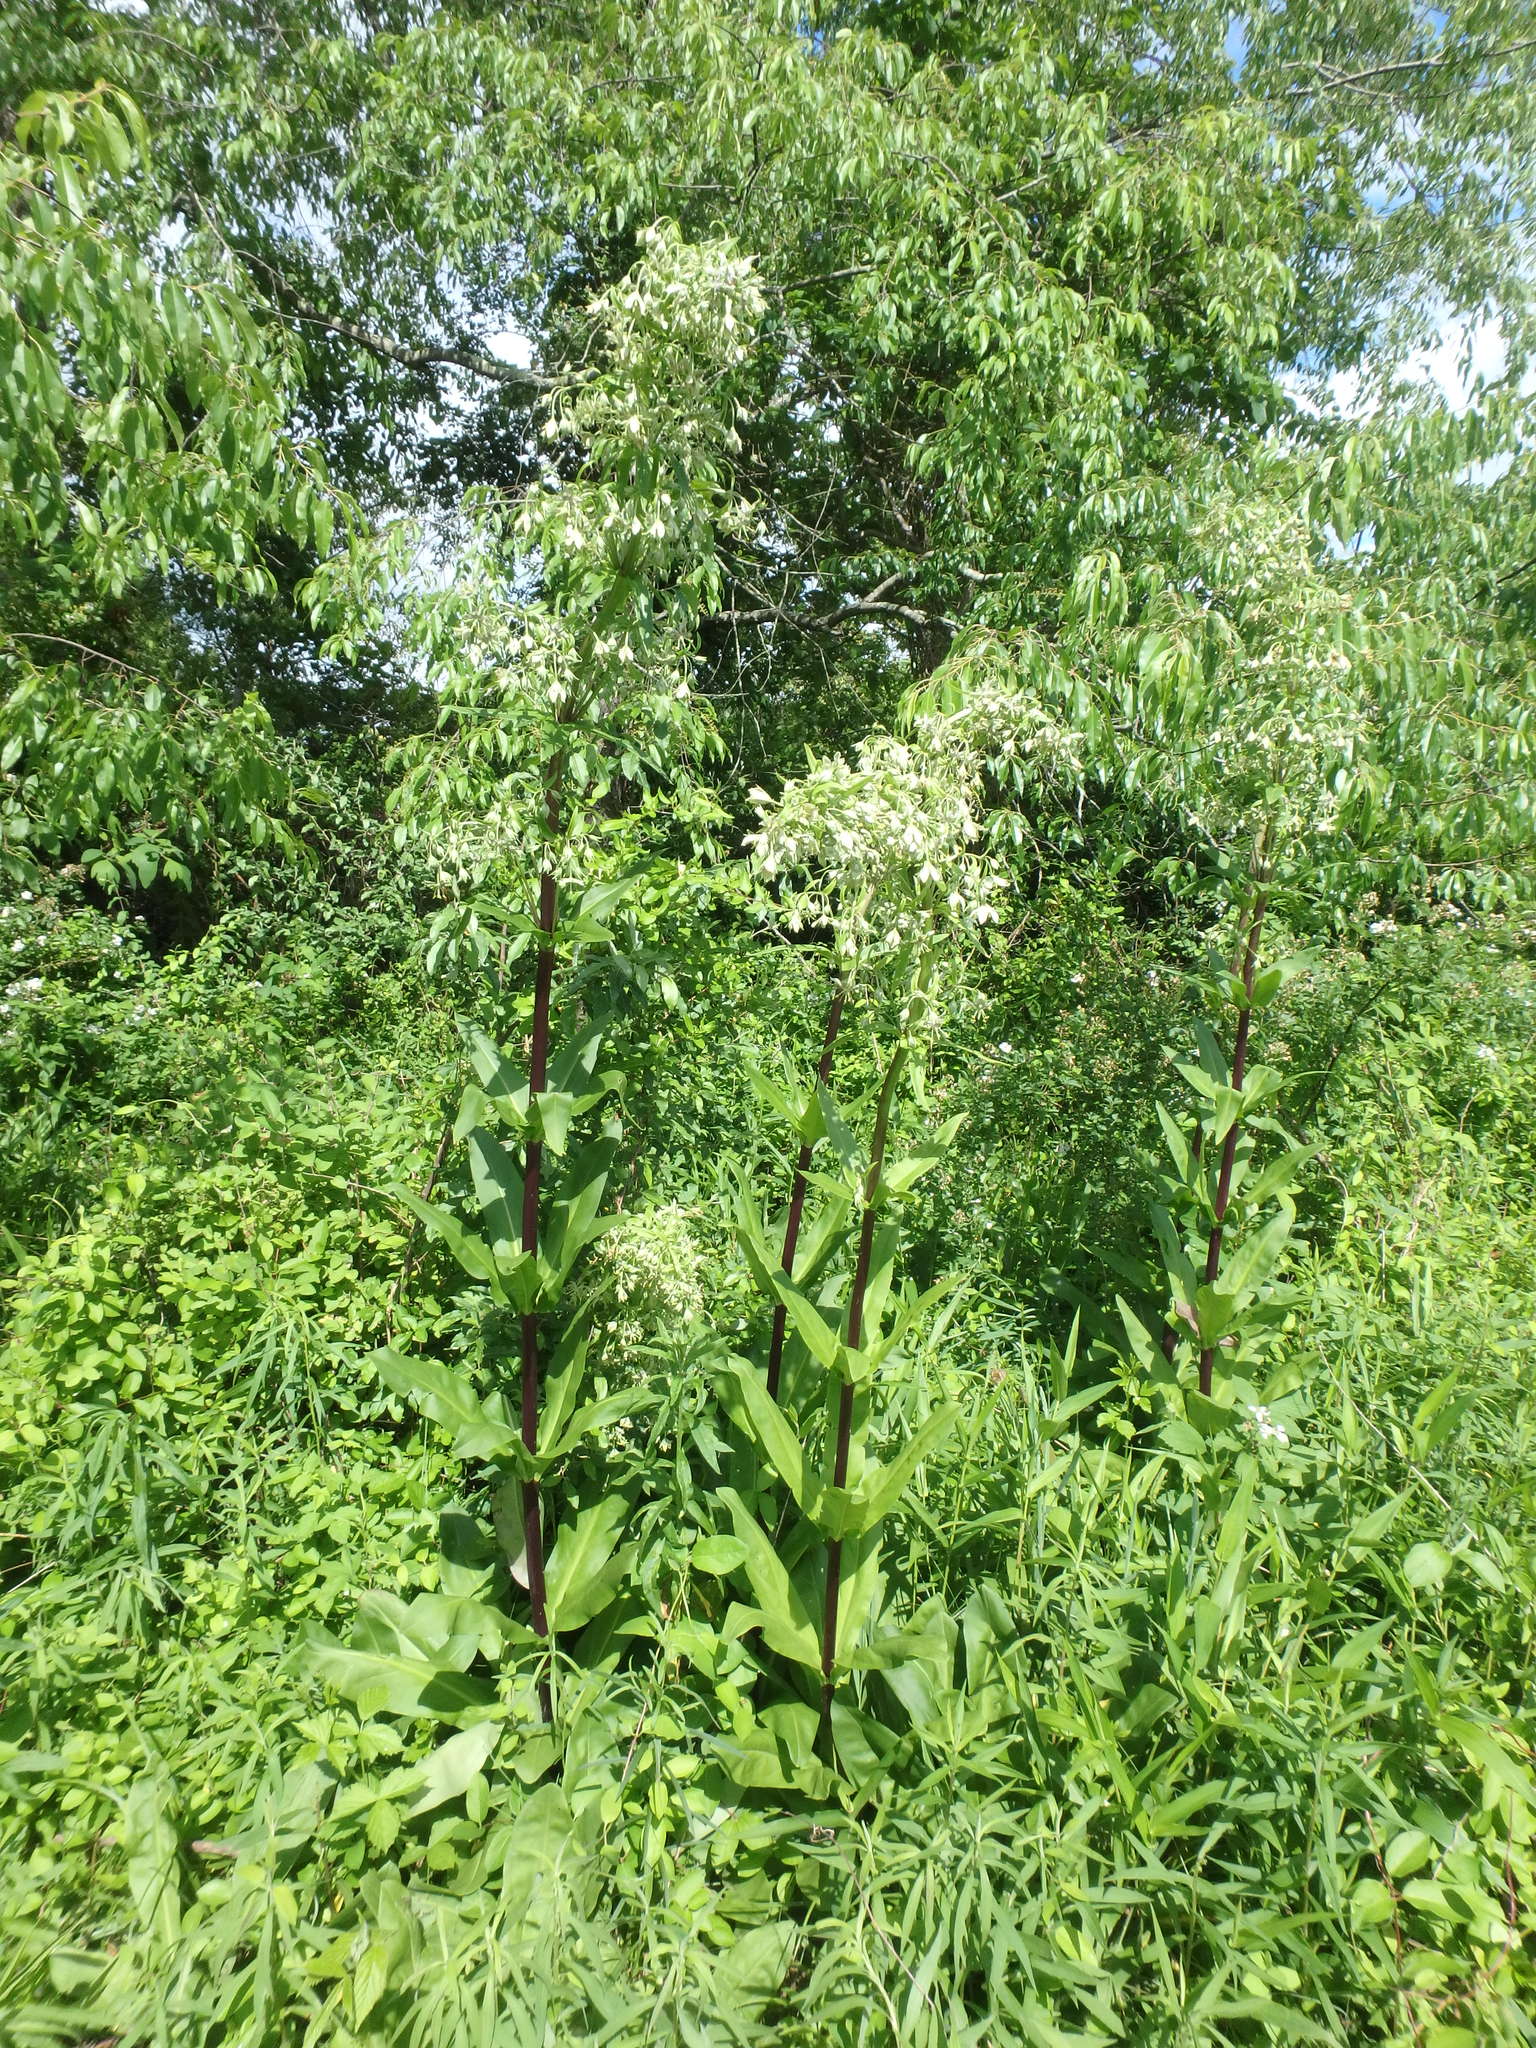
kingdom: Plantae
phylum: Tracheophyta
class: Magnoliopsida
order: Gentianales
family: Gentianaceae
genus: Frasera
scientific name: Frasera caroliniensis
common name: American columbo
